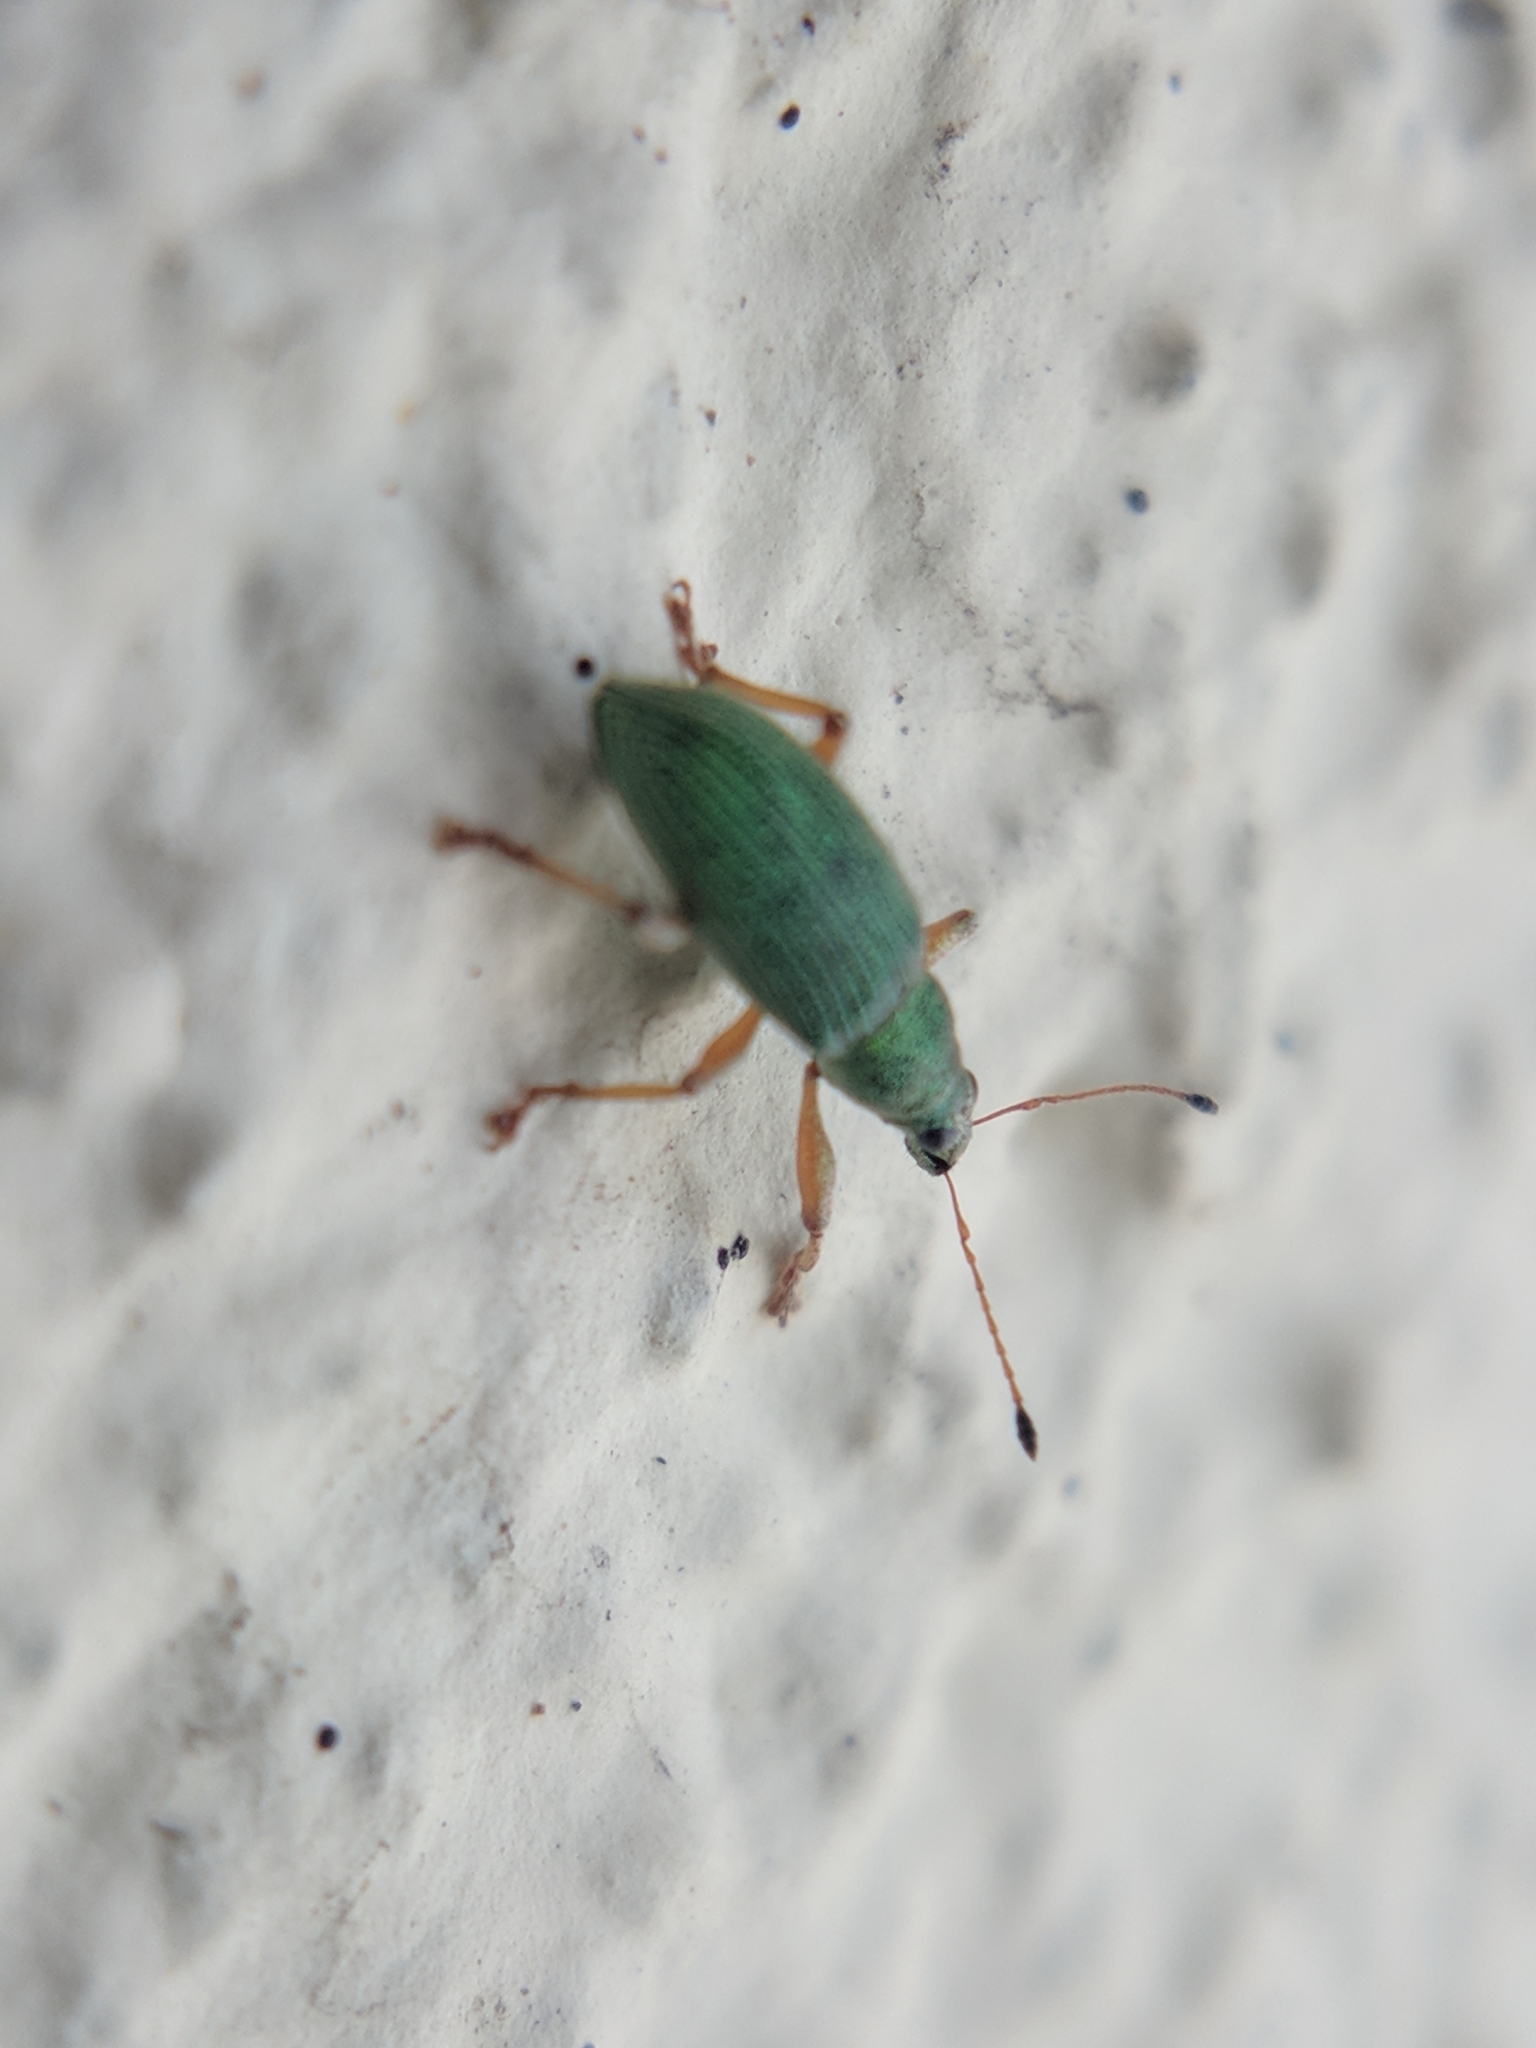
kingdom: Animalia
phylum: Arthropoda
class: Insecta
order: Coleoptera
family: Curculionidae
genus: Polydrusus
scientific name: Polydrusus formosus
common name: Weevil
